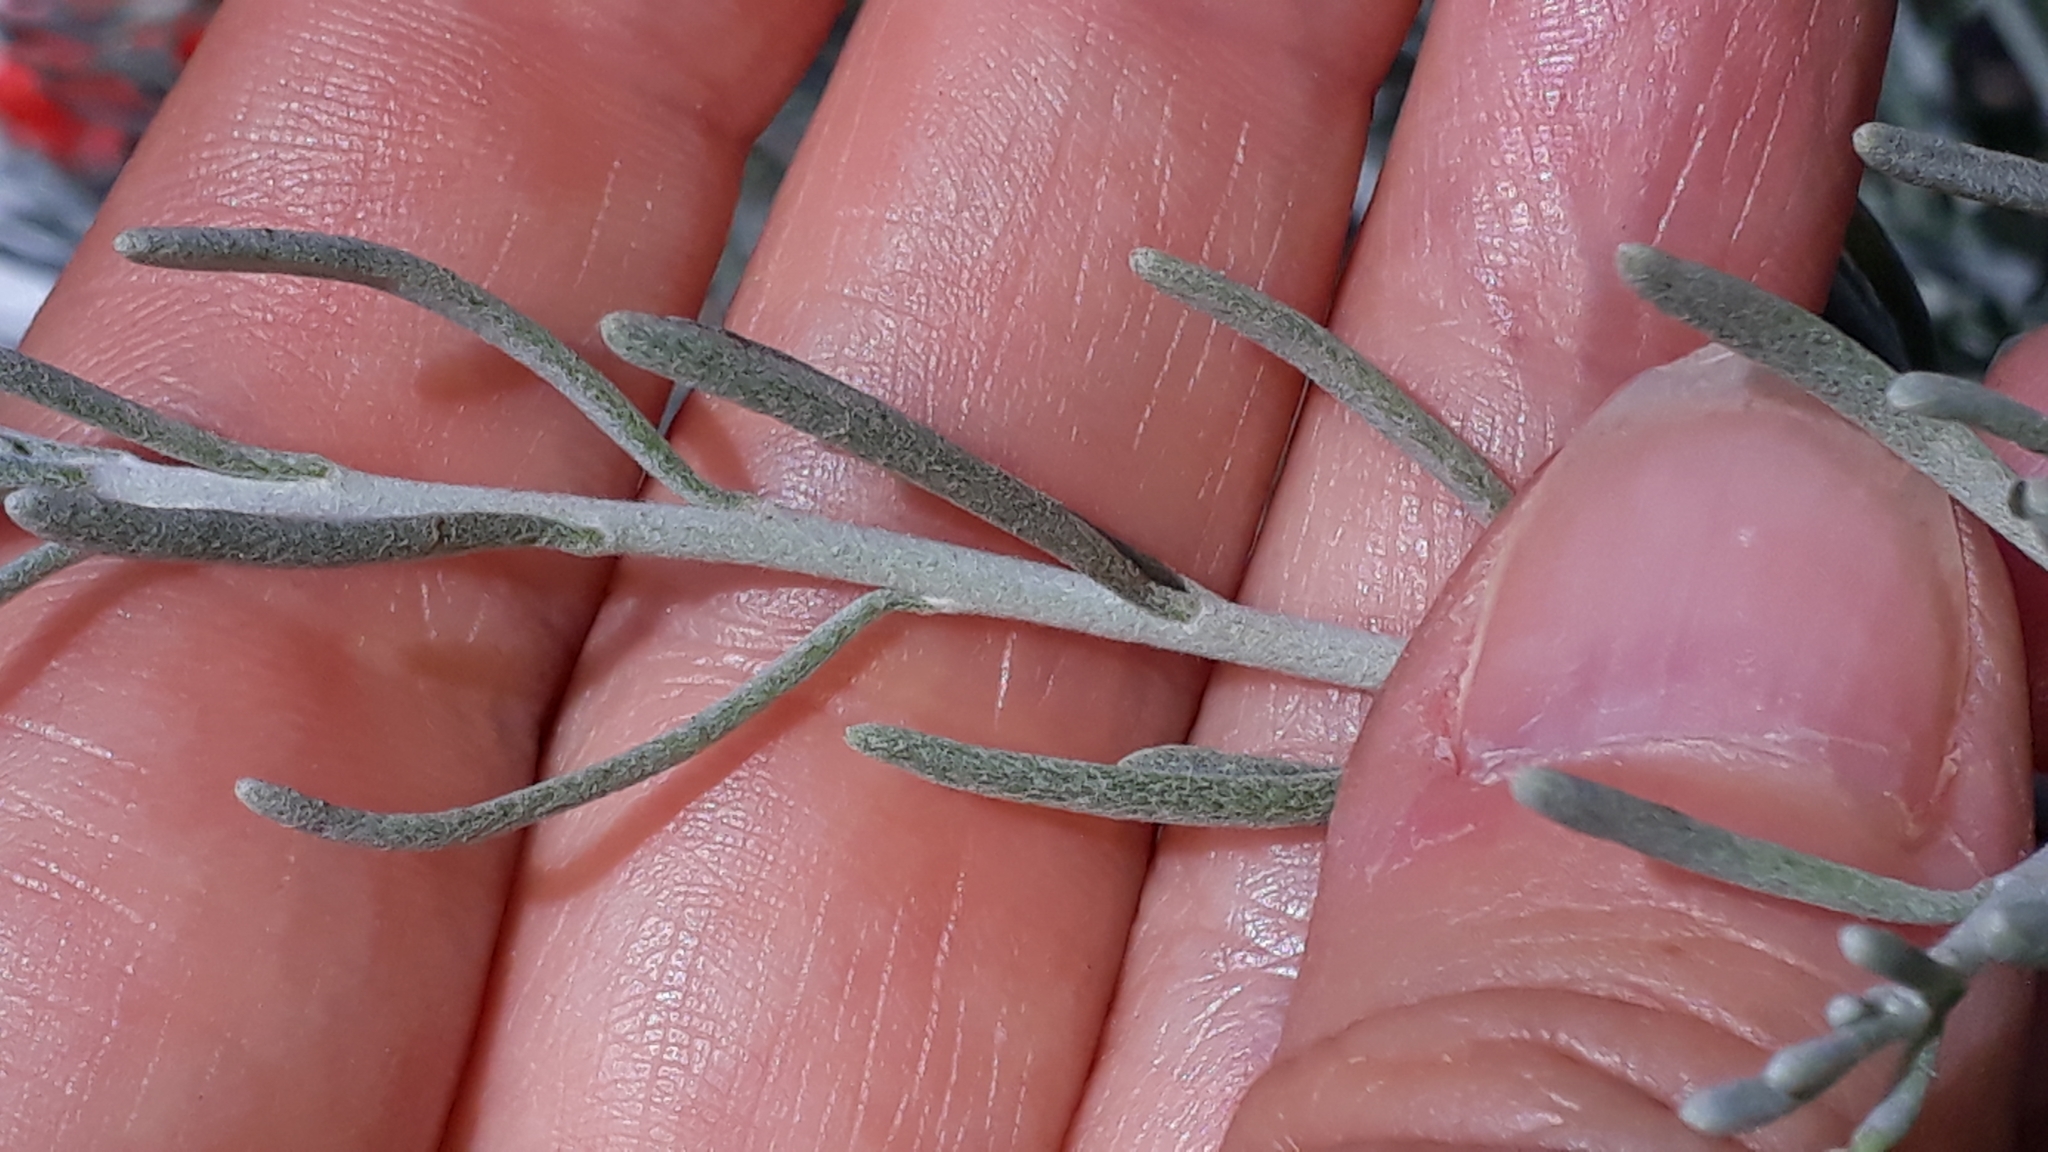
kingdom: Plantae
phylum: Tracheophyta
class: Magnoliopsida
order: Asterales
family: Asteraceae
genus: Schizogyne
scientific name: Schizogyne sericea
